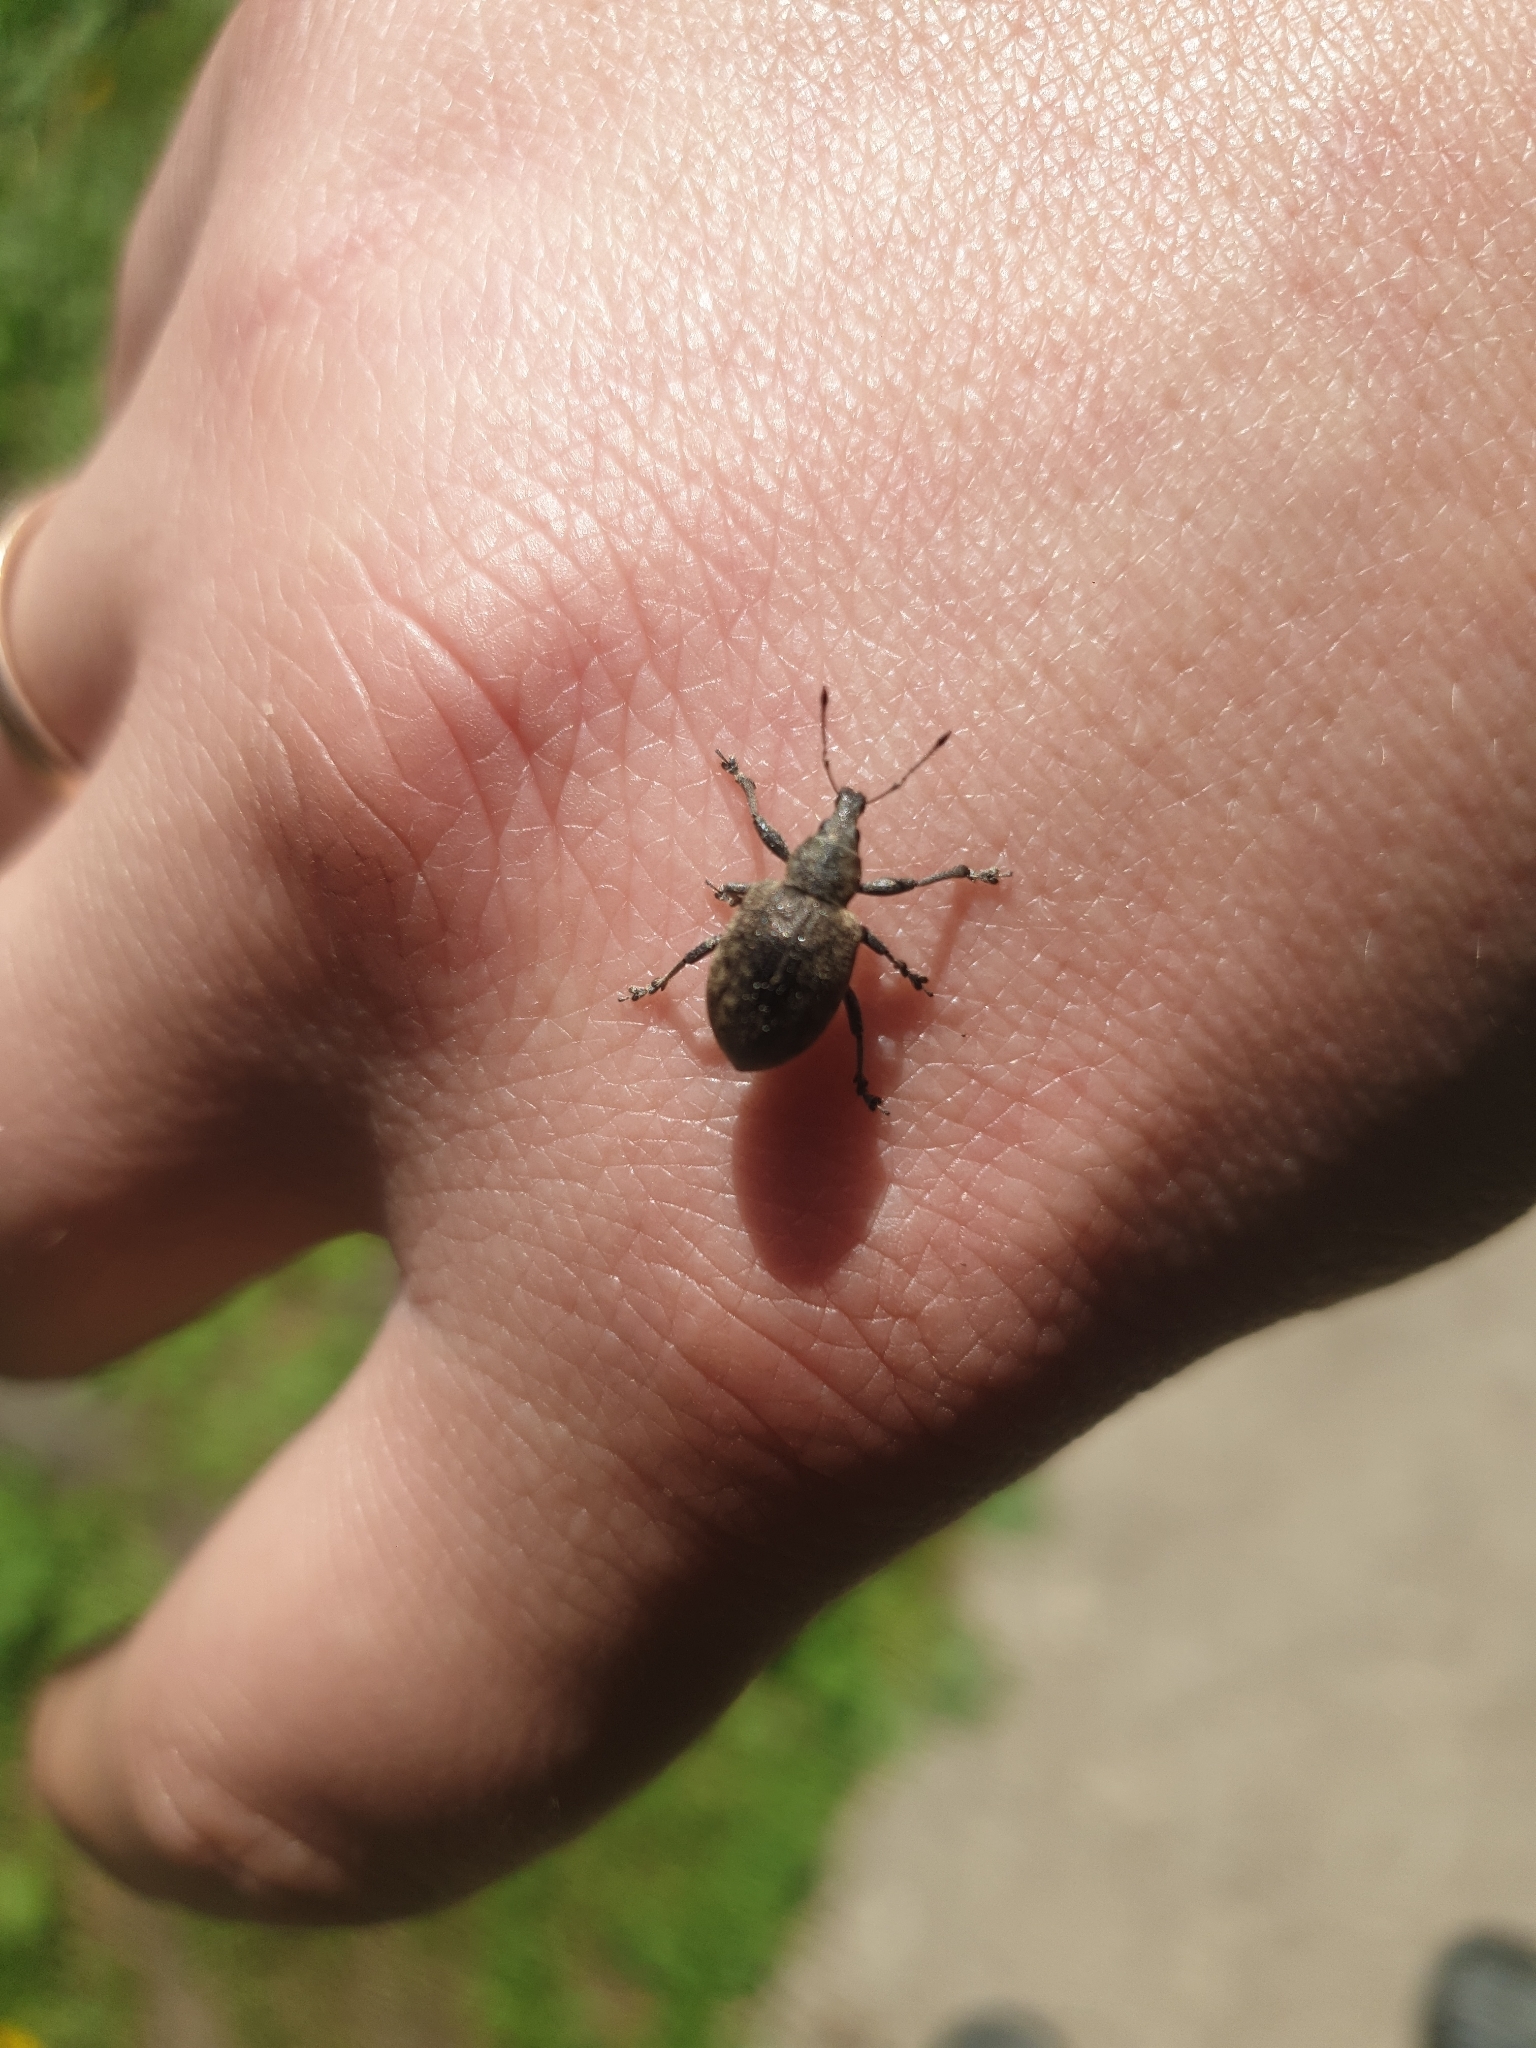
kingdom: Animalia
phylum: Arthropoda
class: Insecta
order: Coleoptera
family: Curculionidae
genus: Liophloeus
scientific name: Liophloeus tessulatus
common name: Weevil
